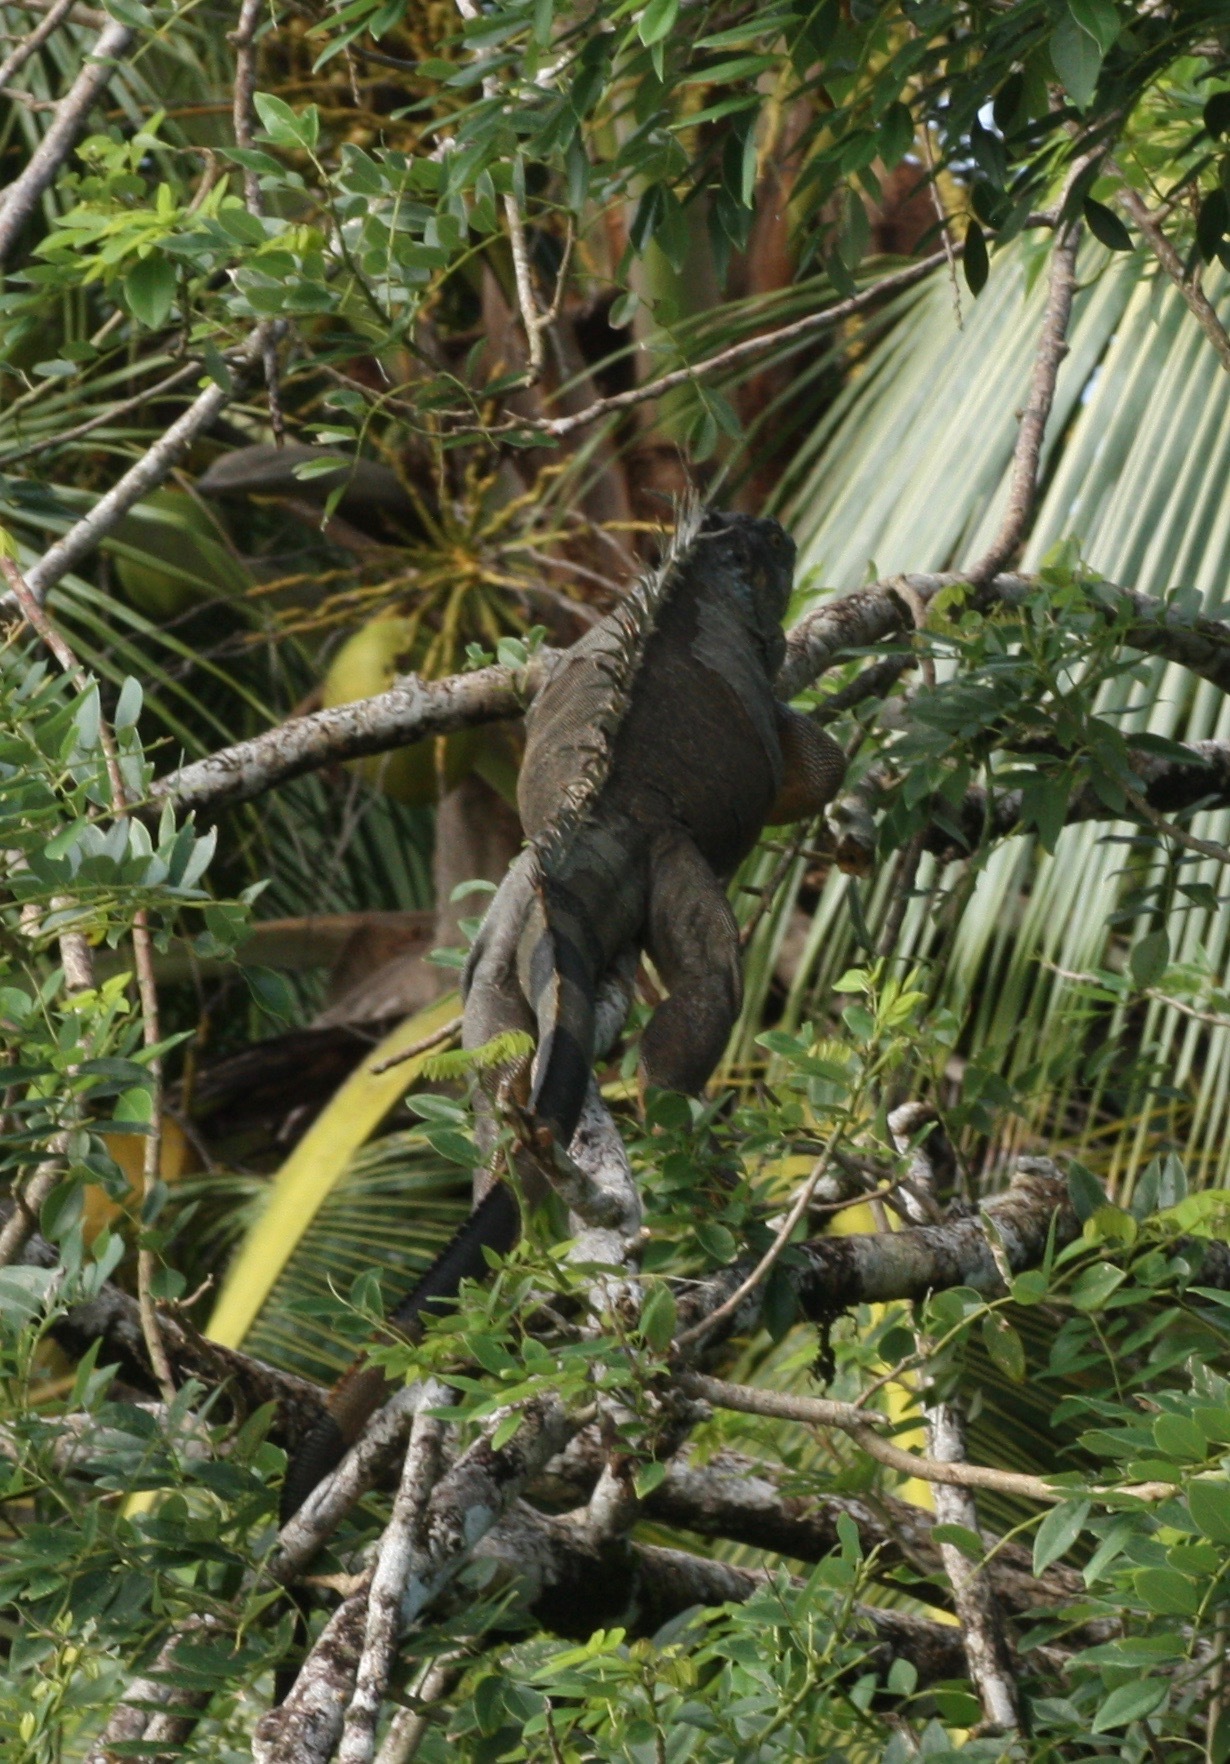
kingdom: Animalia
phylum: Chordata
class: Squamata
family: Iguanidae
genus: Iguana
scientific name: Iguana iguana
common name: Green iguana
